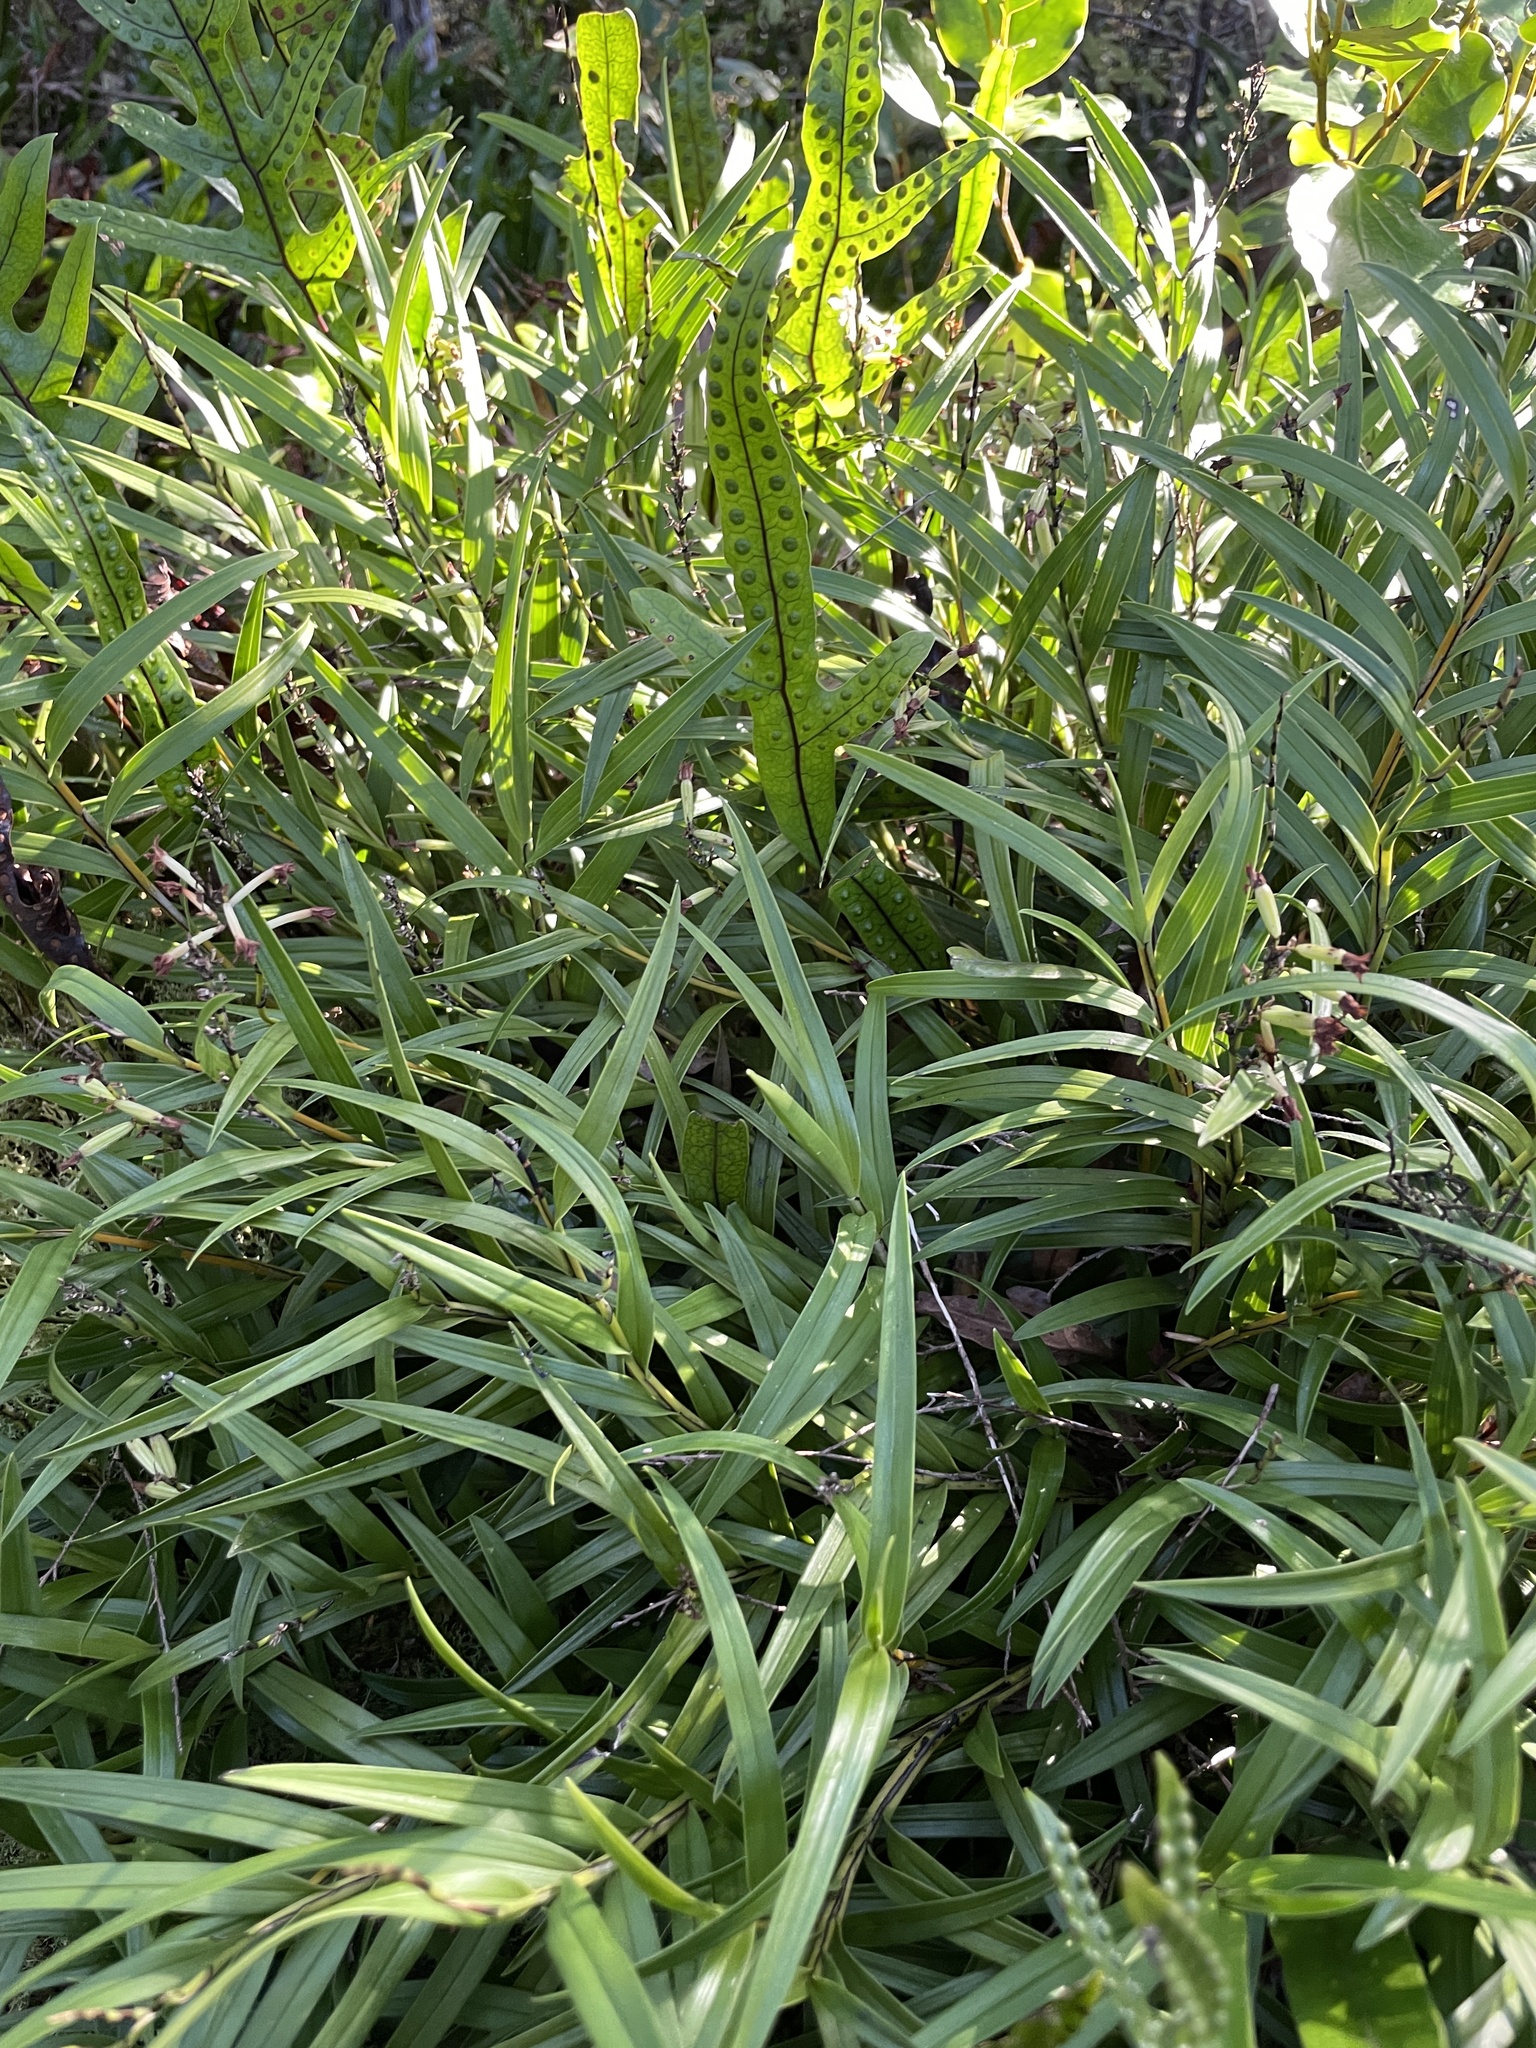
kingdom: Plantae
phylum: Tracheophyta
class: Liliopsida
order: Asparagales
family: Orchidaceae
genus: Earina
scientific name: Earina autumnalis
